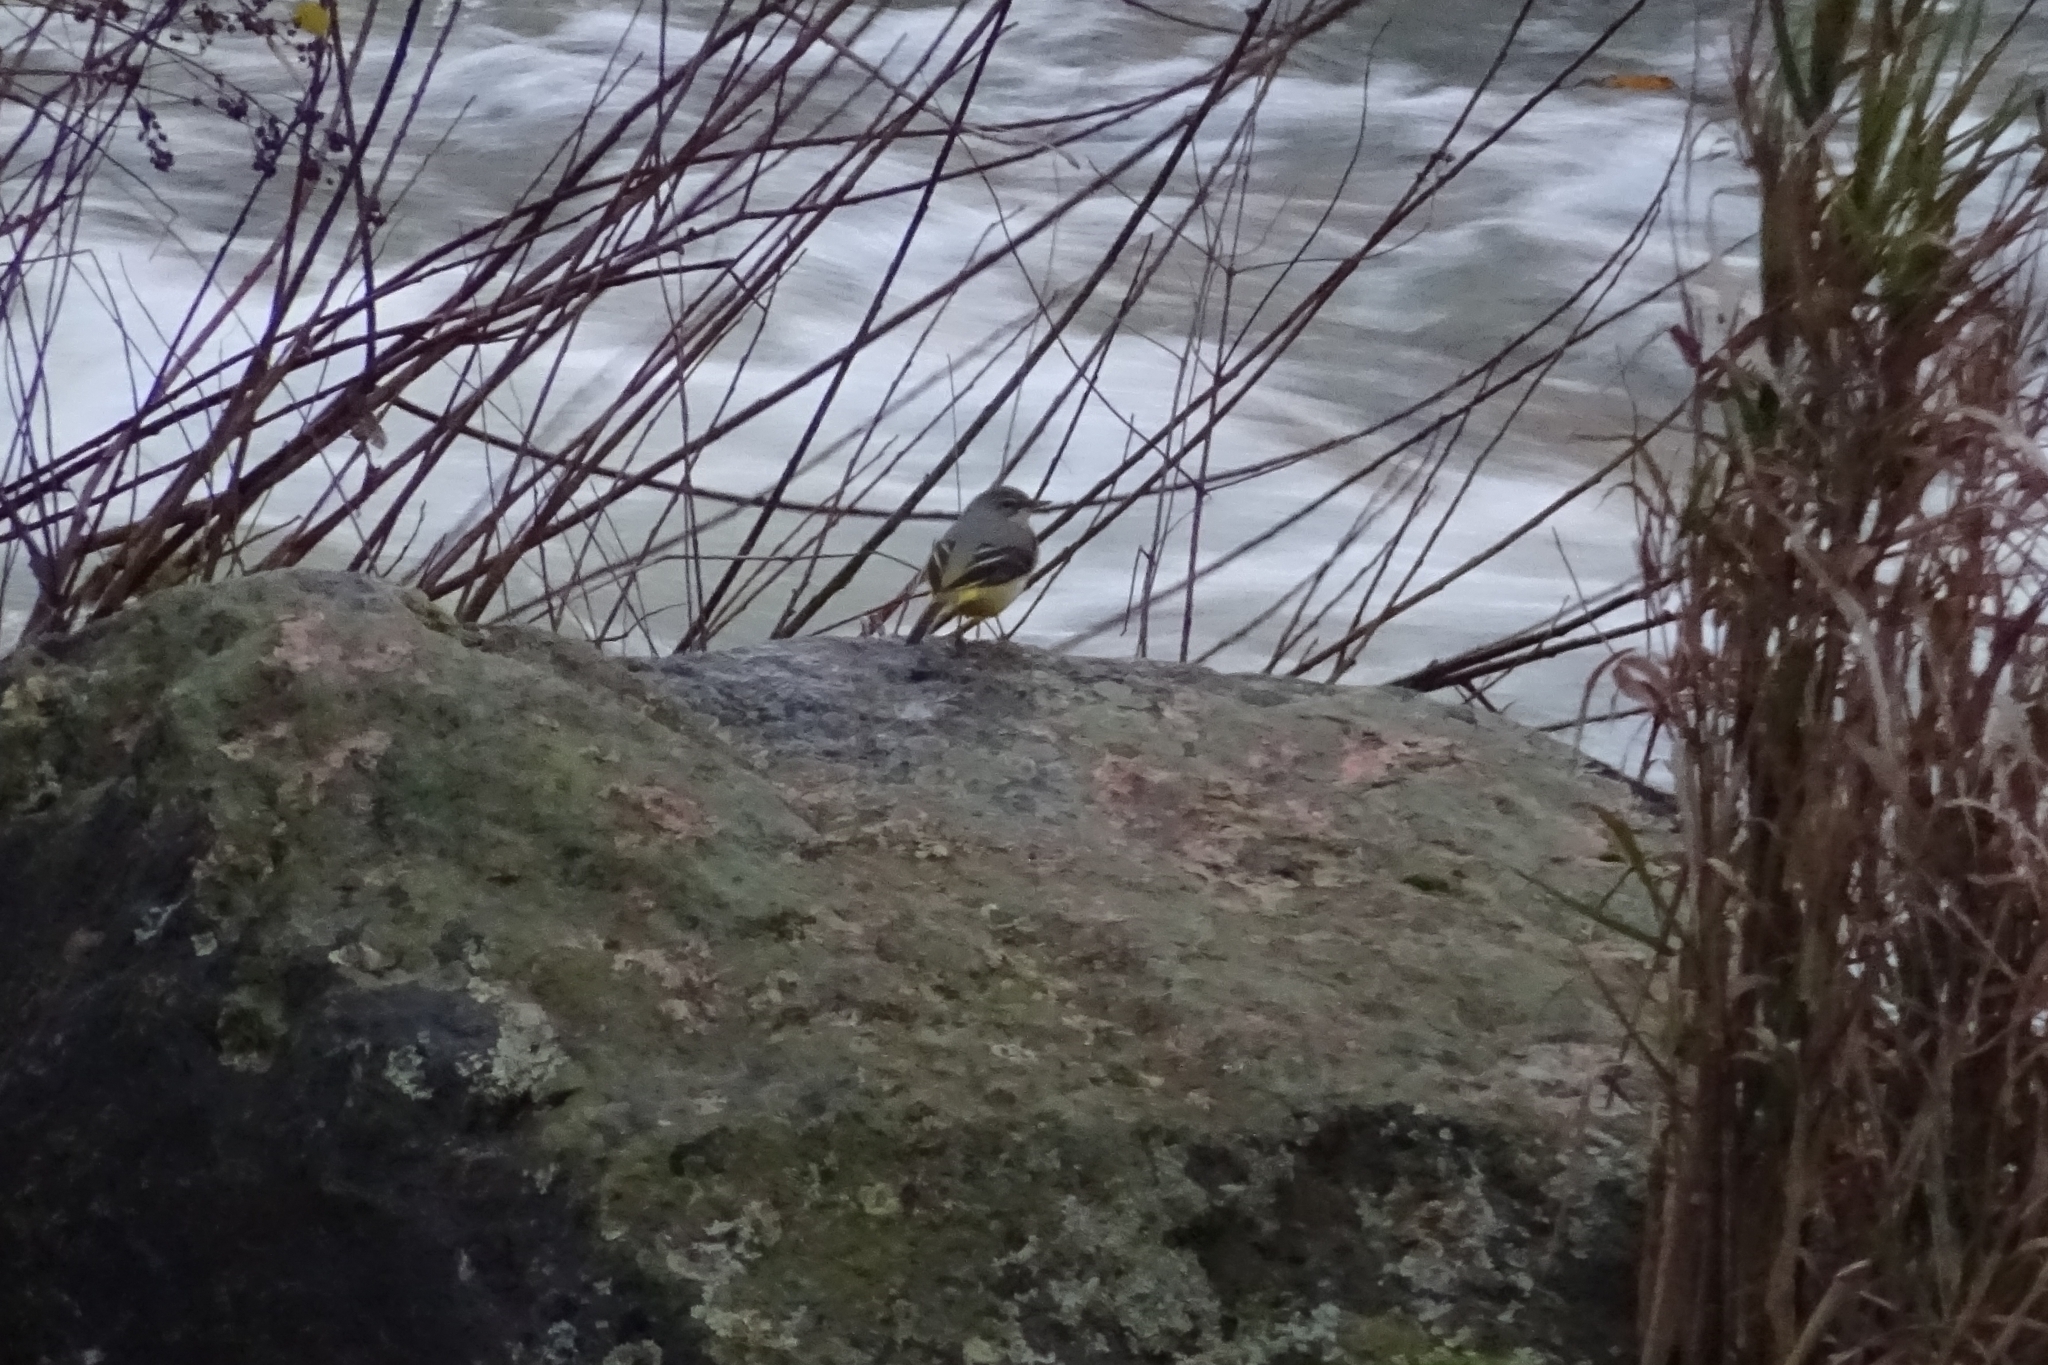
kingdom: Animalia
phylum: Chordata
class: Aves
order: Passeriformes
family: Motacillidae
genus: Motacilla
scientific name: Motacilla cinerea
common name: Grey wagtail
